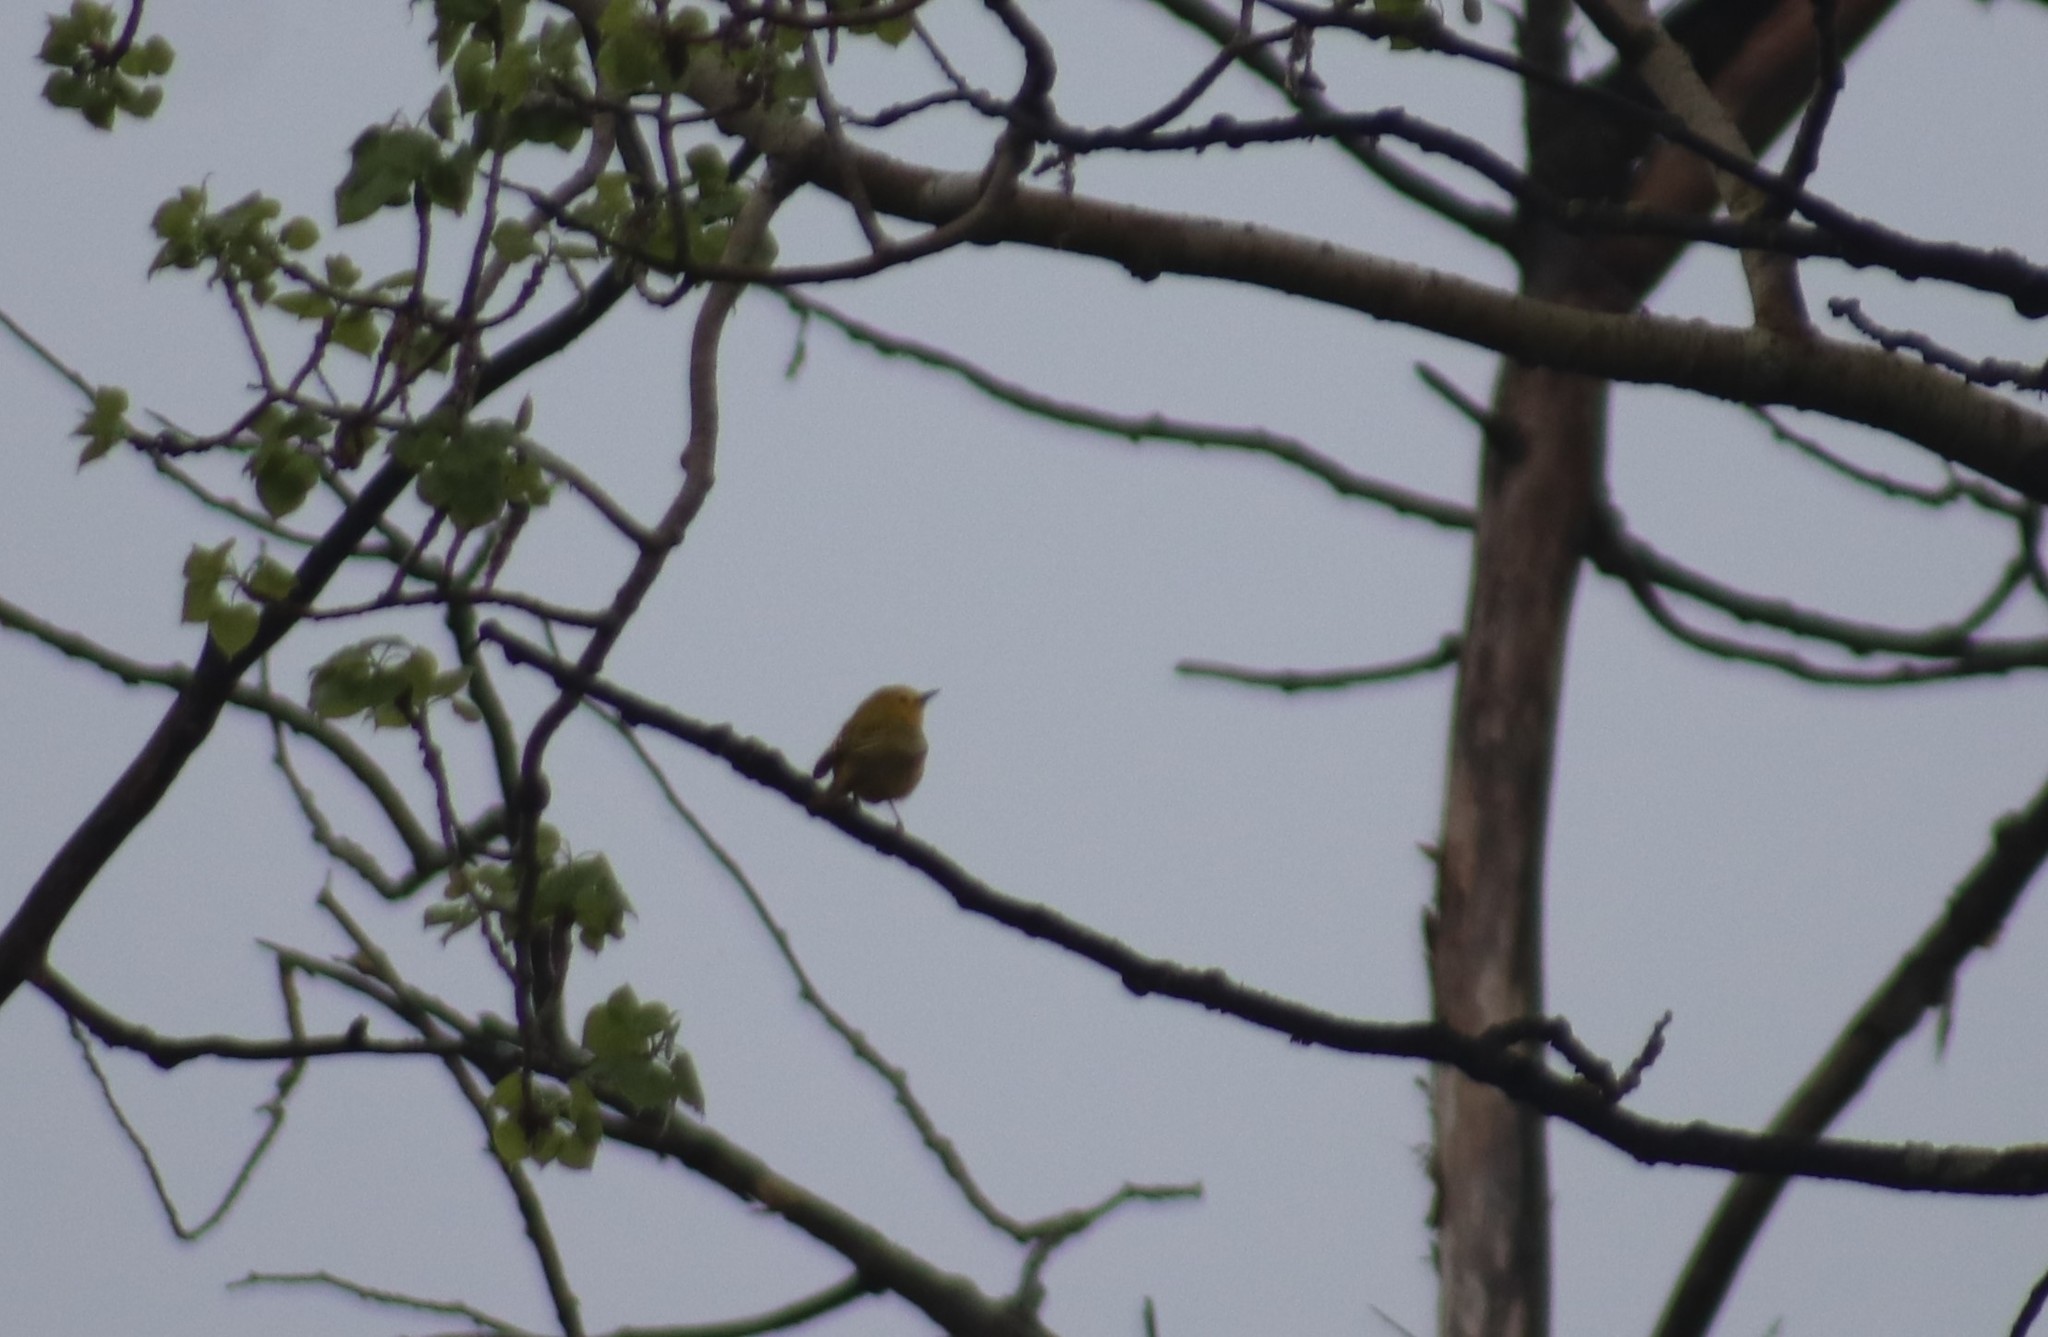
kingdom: Animalia
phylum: Chordata
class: Aves
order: Passeriformes
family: Parulidae
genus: Setophaga
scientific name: Setophaga petechia
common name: Yellow warbler
